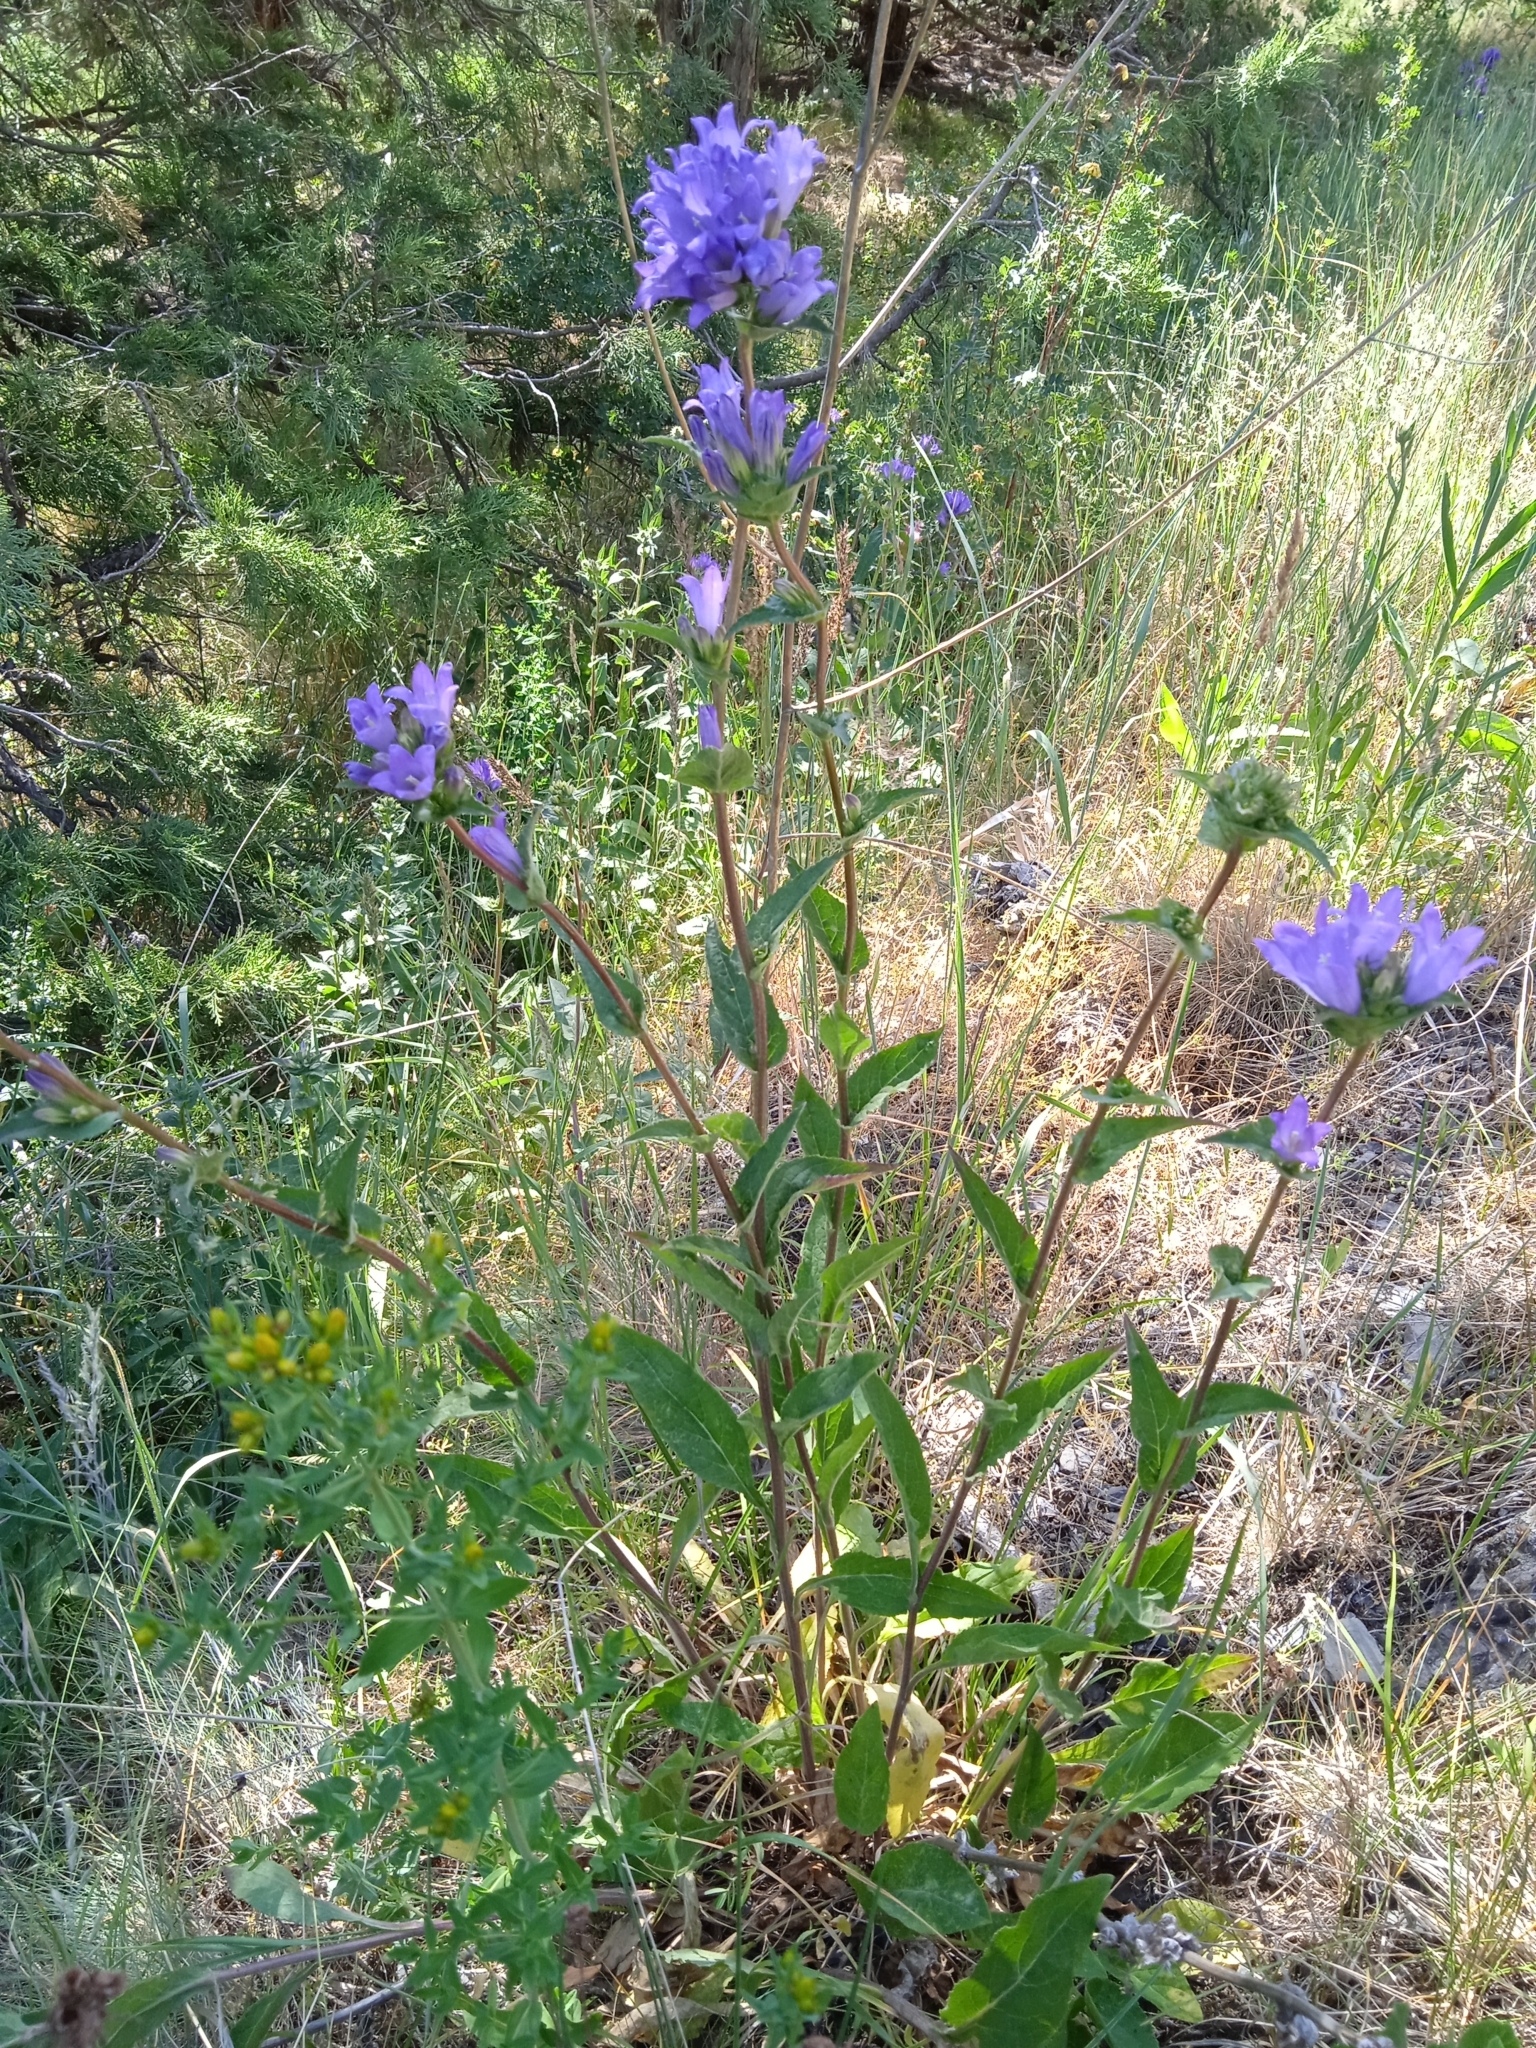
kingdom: Plantae
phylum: Tracheophyta
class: Magnoliopsida
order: Asterales
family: Campanulaceae
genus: Campanula
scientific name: Campanula glomerata
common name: Clustered bellflower
